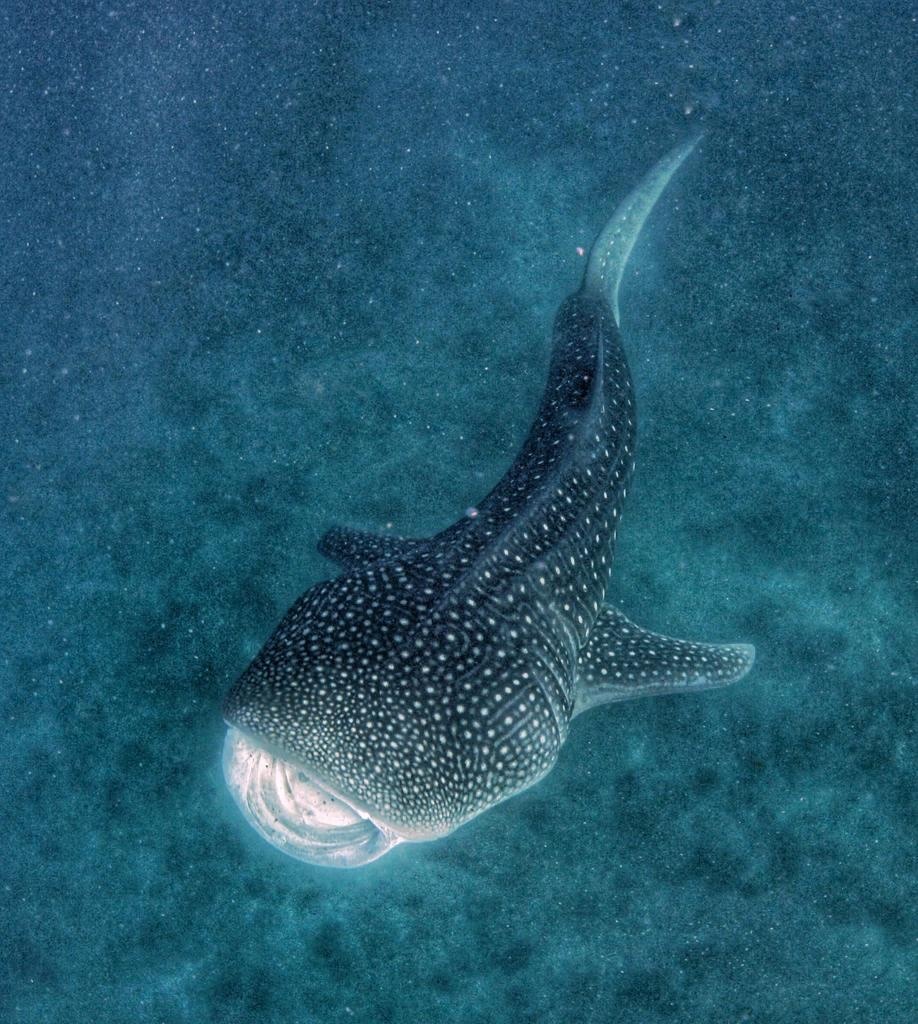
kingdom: Animalia
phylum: Chordata
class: Elasmobranchii
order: Orectolobiformes
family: Rhincodontidae
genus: Rhincodon
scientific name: Rhincodon typus
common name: Whale shark
